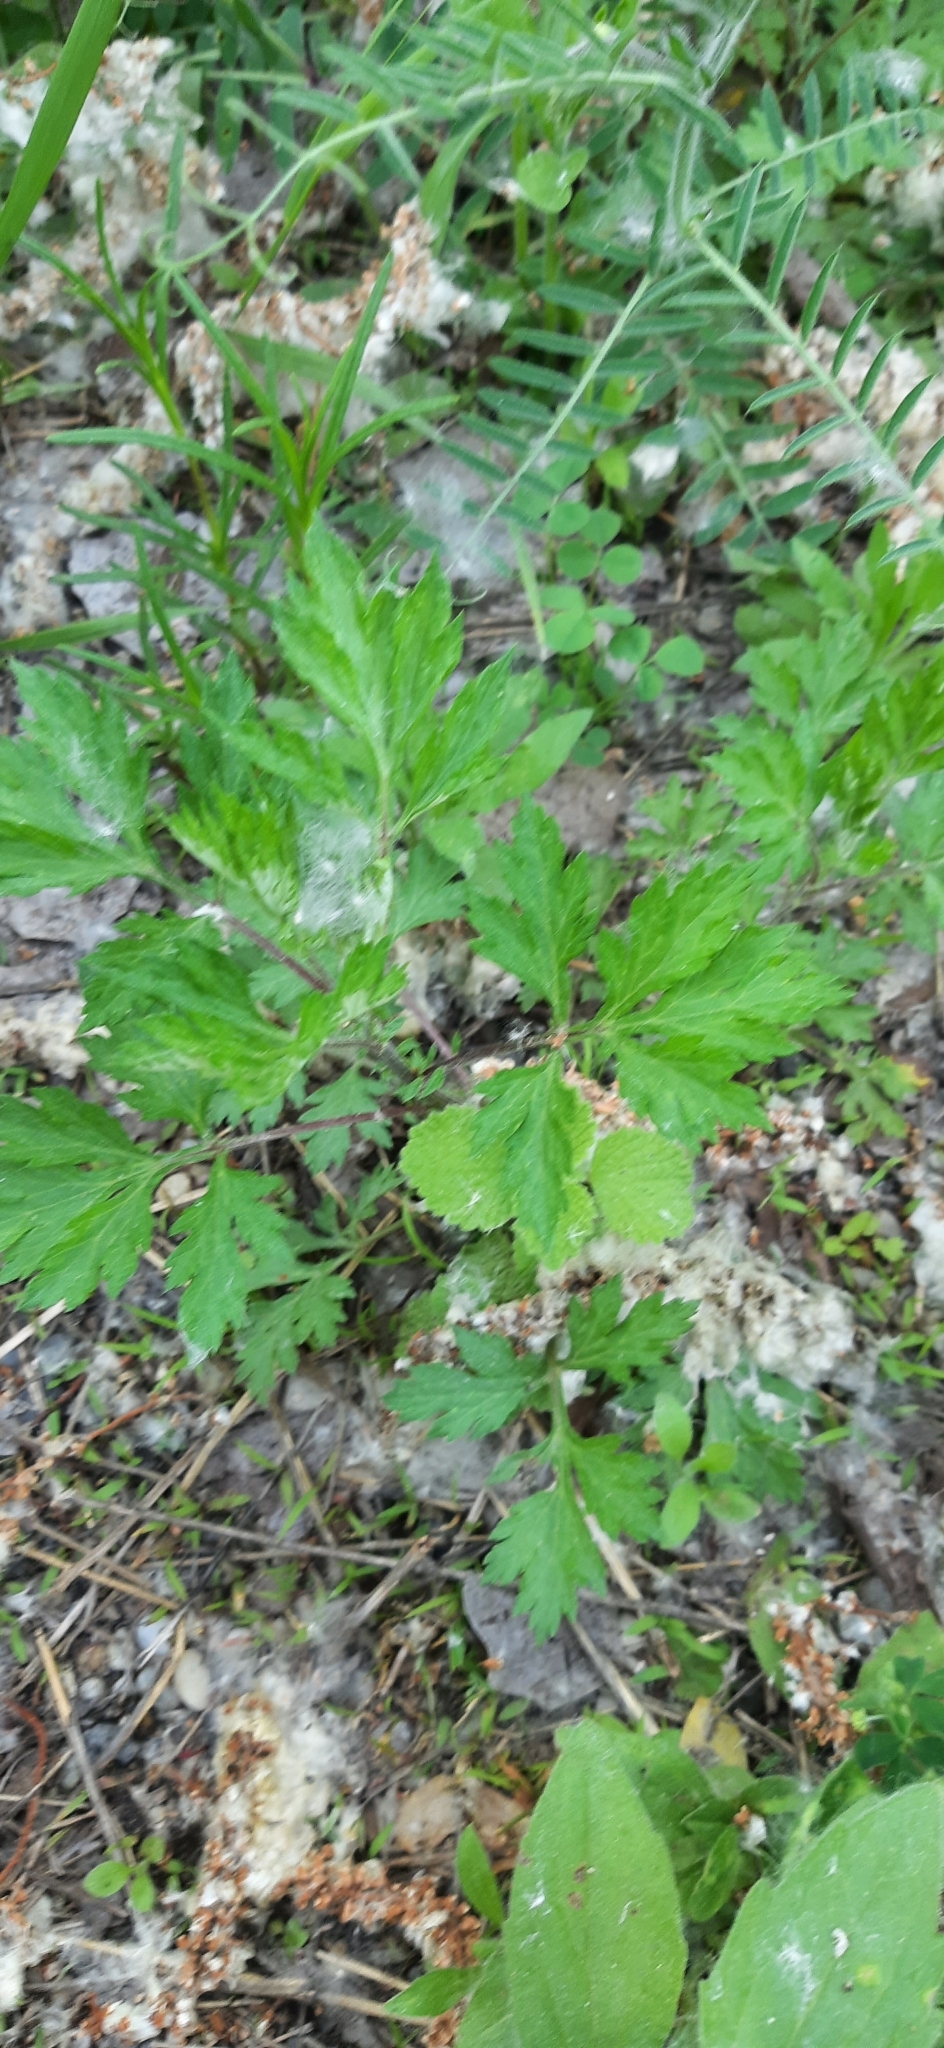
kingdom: Plantae
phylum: Tracheophyta
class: Magnoliopsida
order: Asterales
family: Asteraceae
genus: Artemisia
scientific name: Artemisia vulgaris
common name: Mugwort
